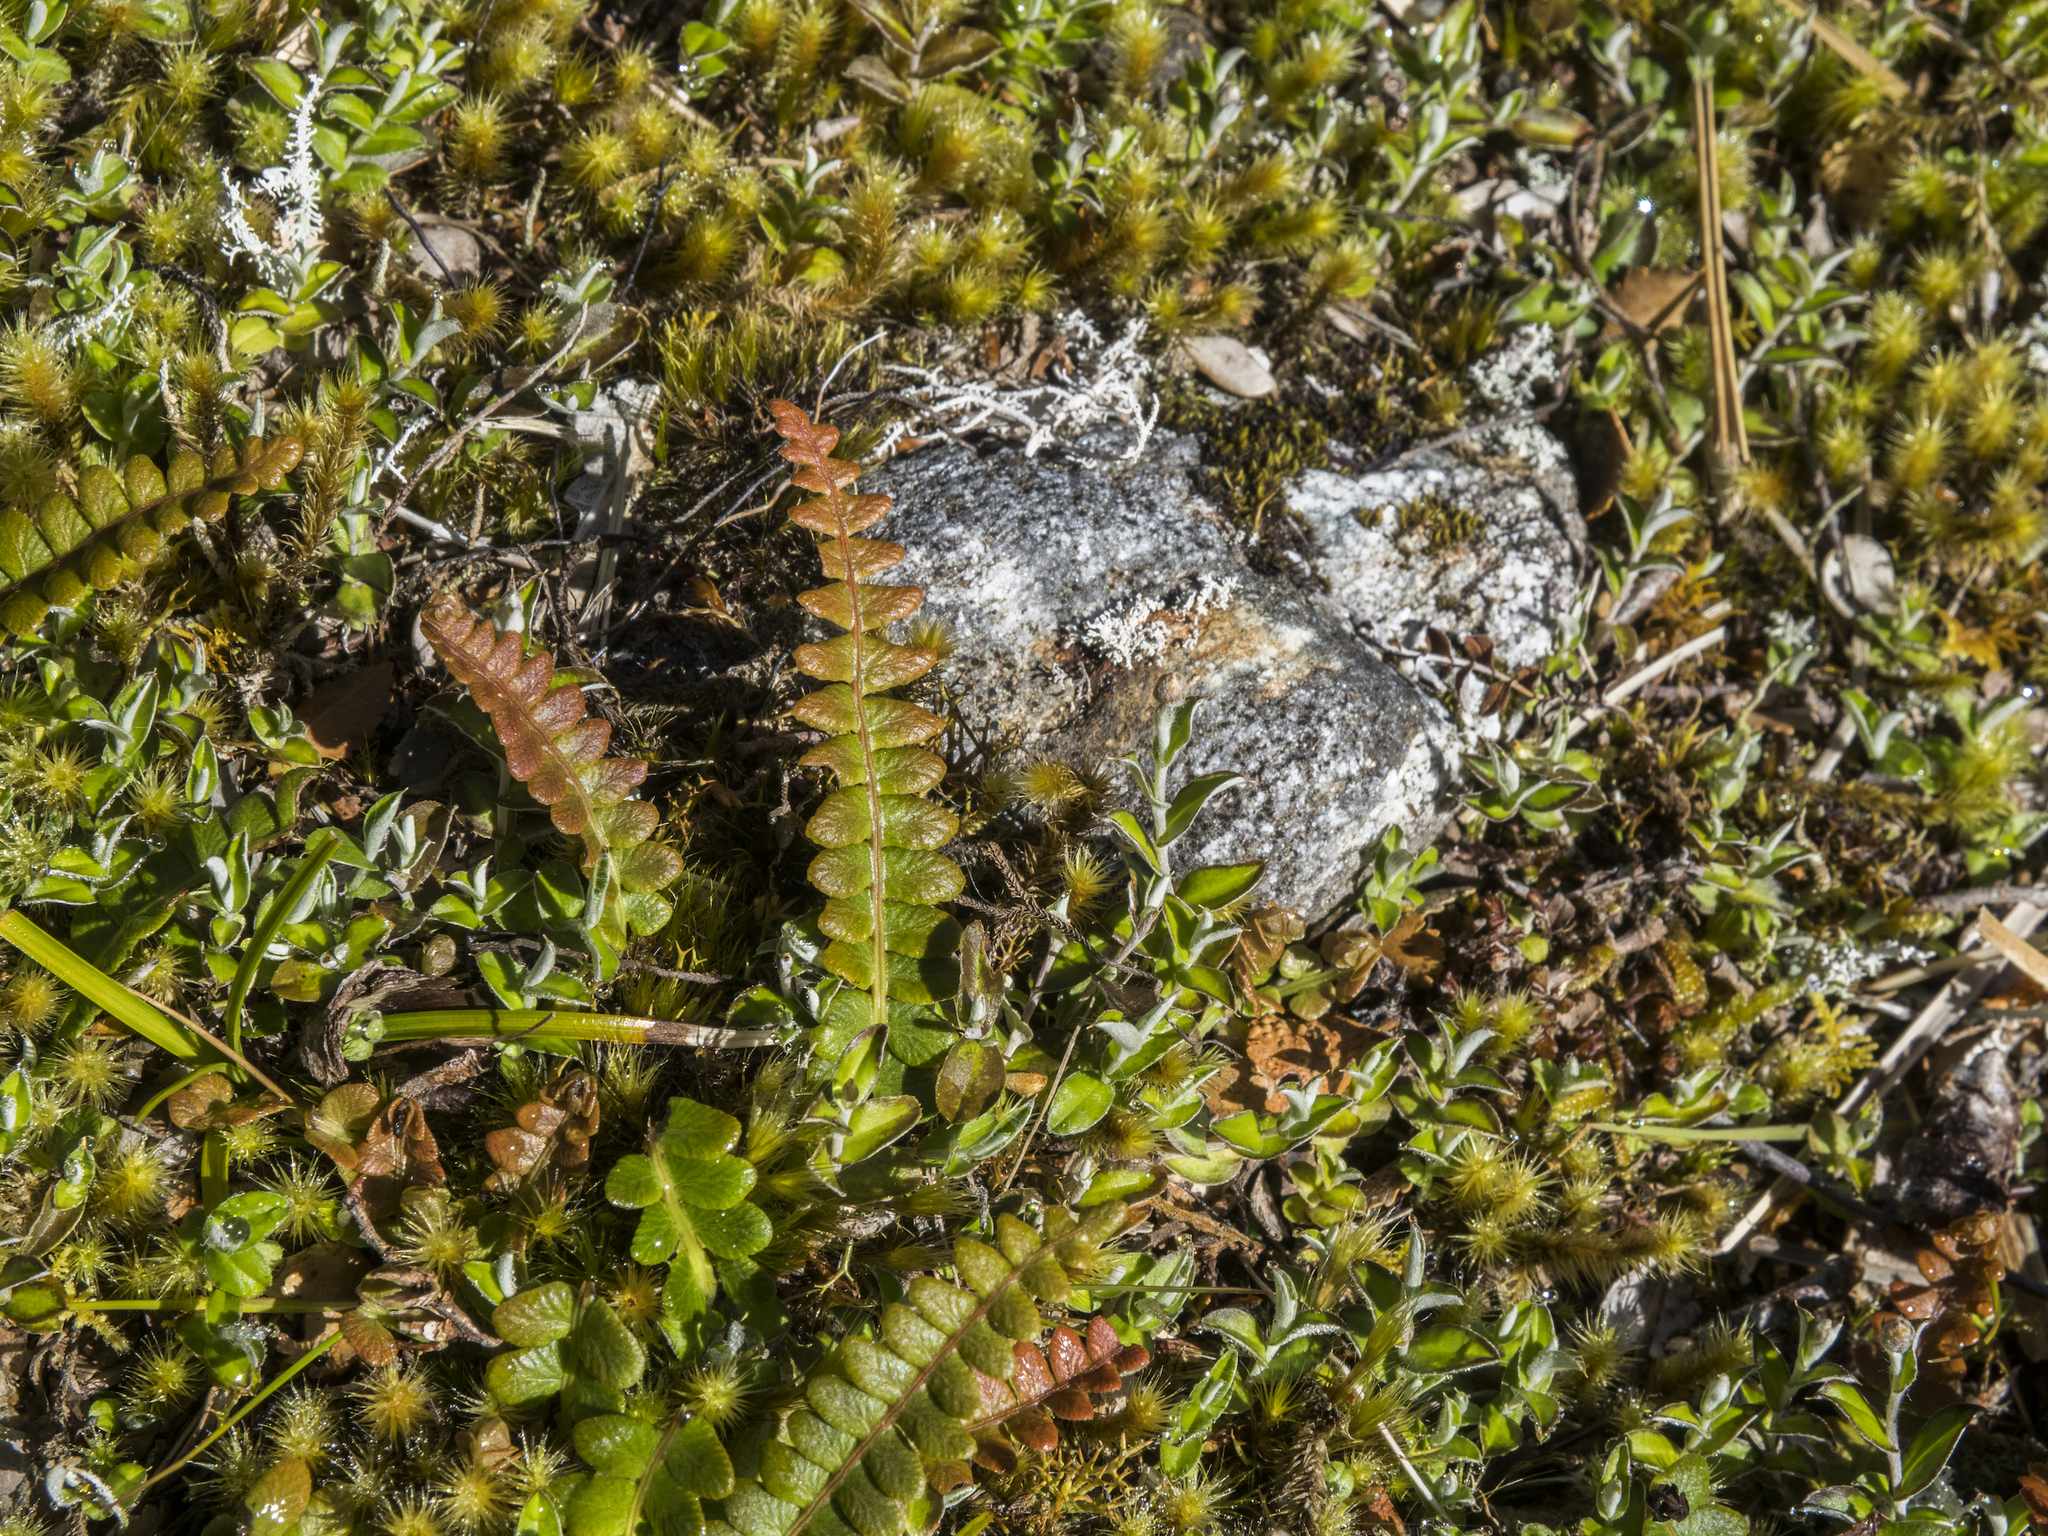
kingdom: Plantae
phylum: Tracheophyta
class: Polypodiopsida
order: Polypodiales
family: Blechnaceae
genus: Austroblechnum
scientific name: Austroblechnum penna-marina
